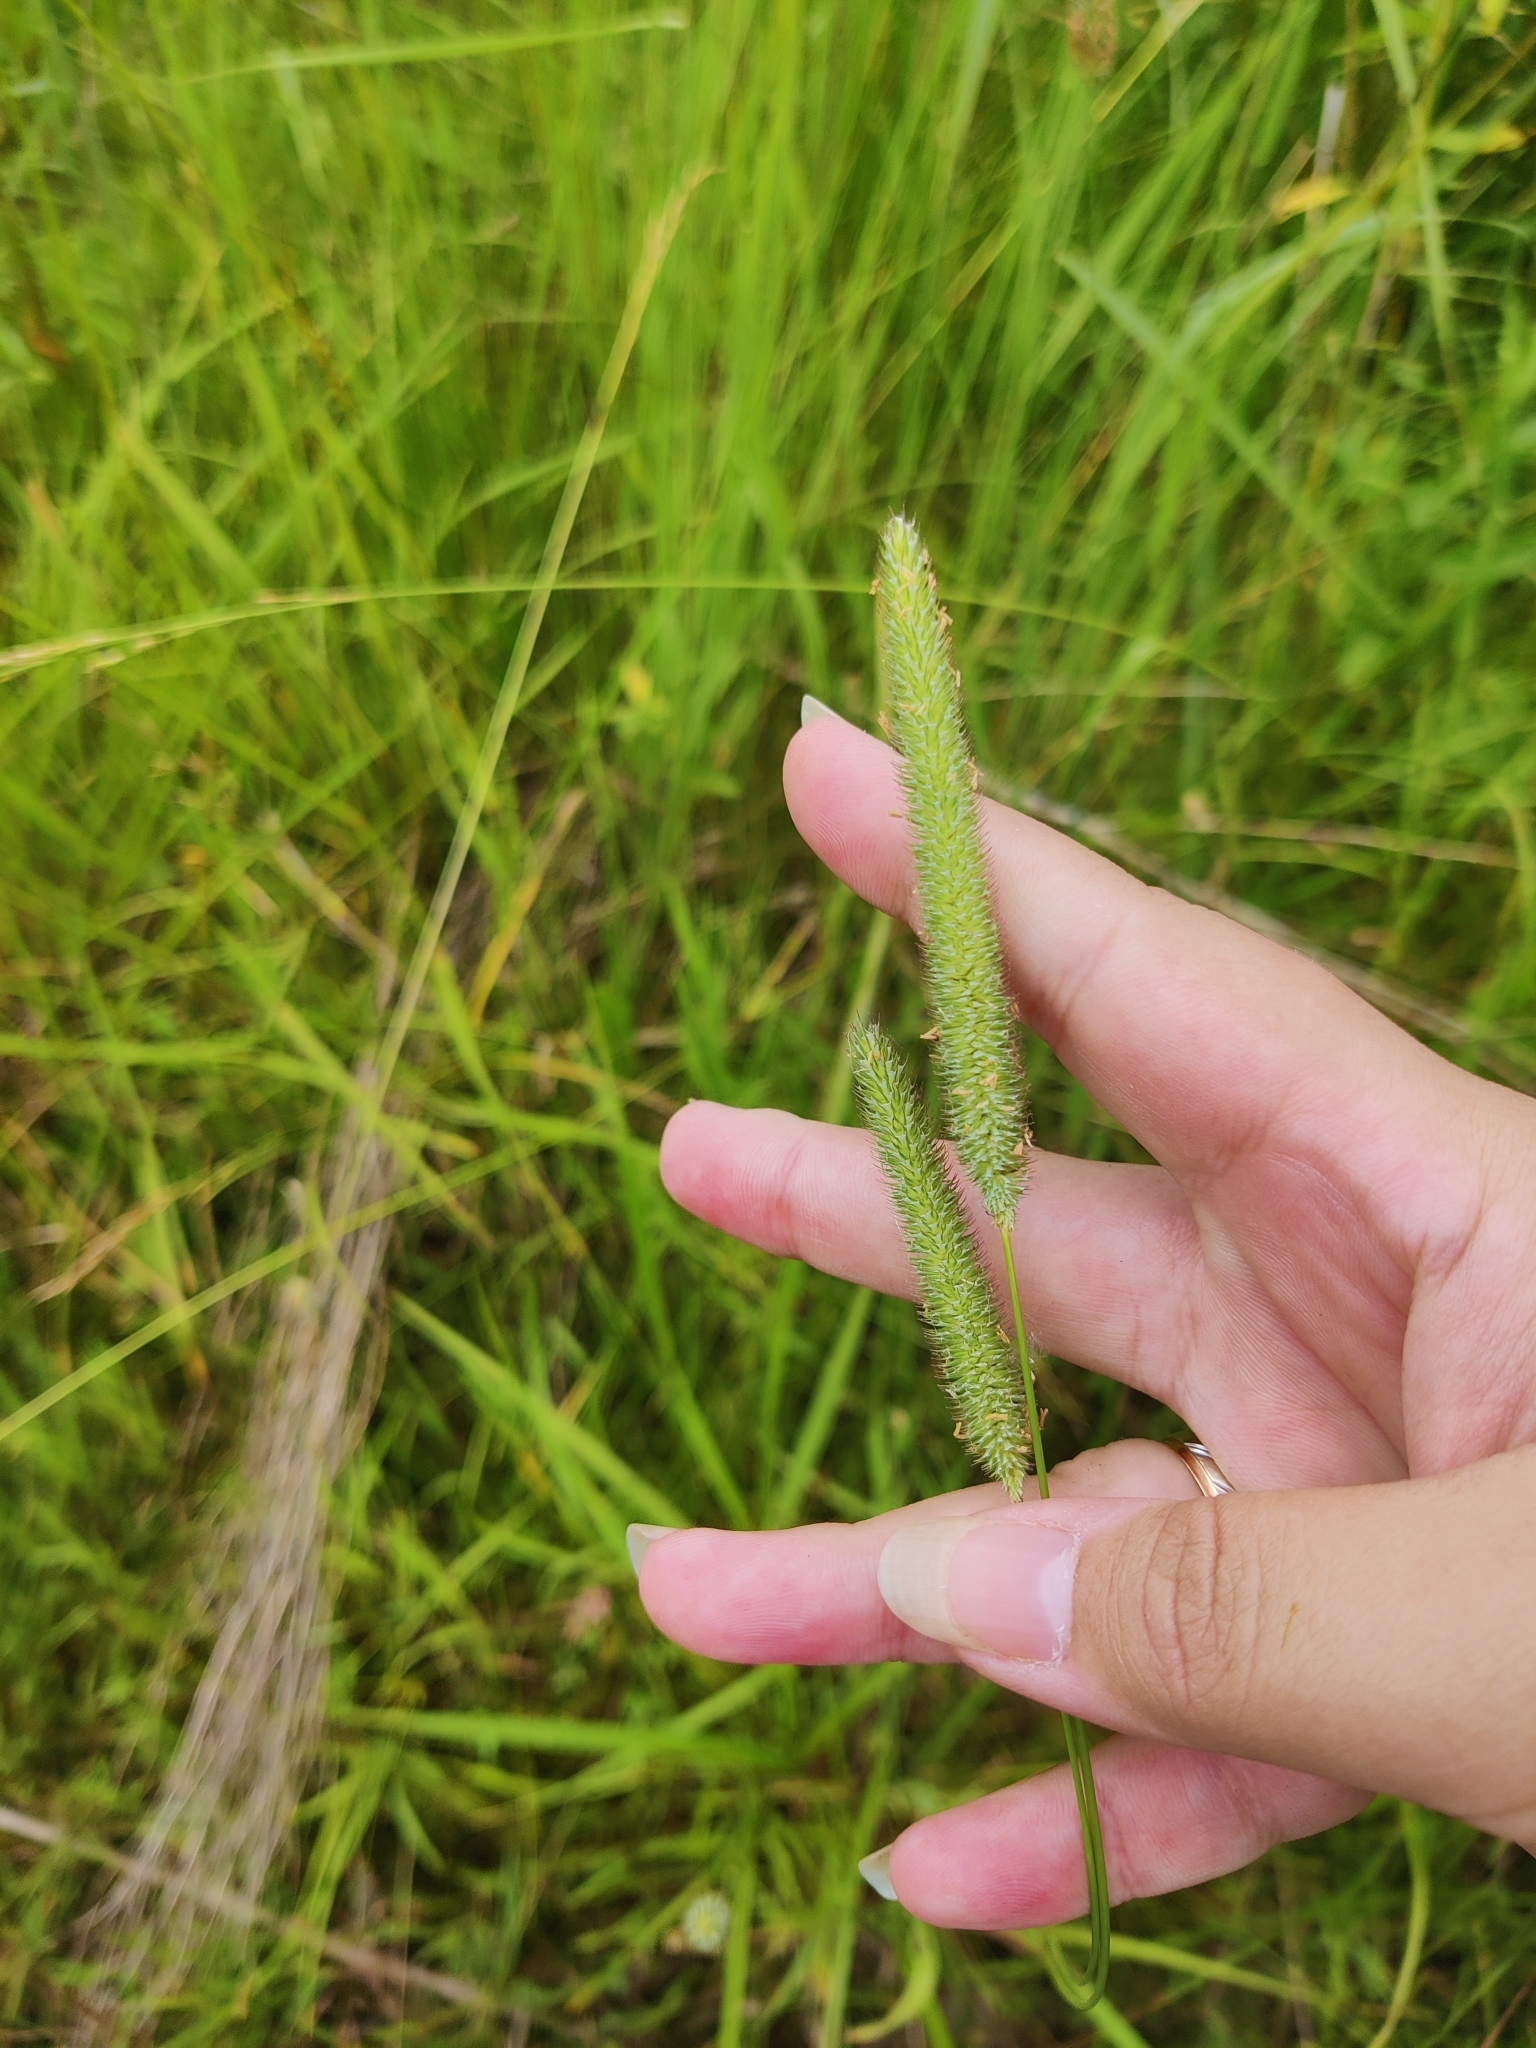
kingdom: Plantae
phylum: Tracheophyta
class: Liliopsida
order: Poales
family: Poaceae
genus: Phleum
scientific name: Phleum pratense
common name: Timothy grass
